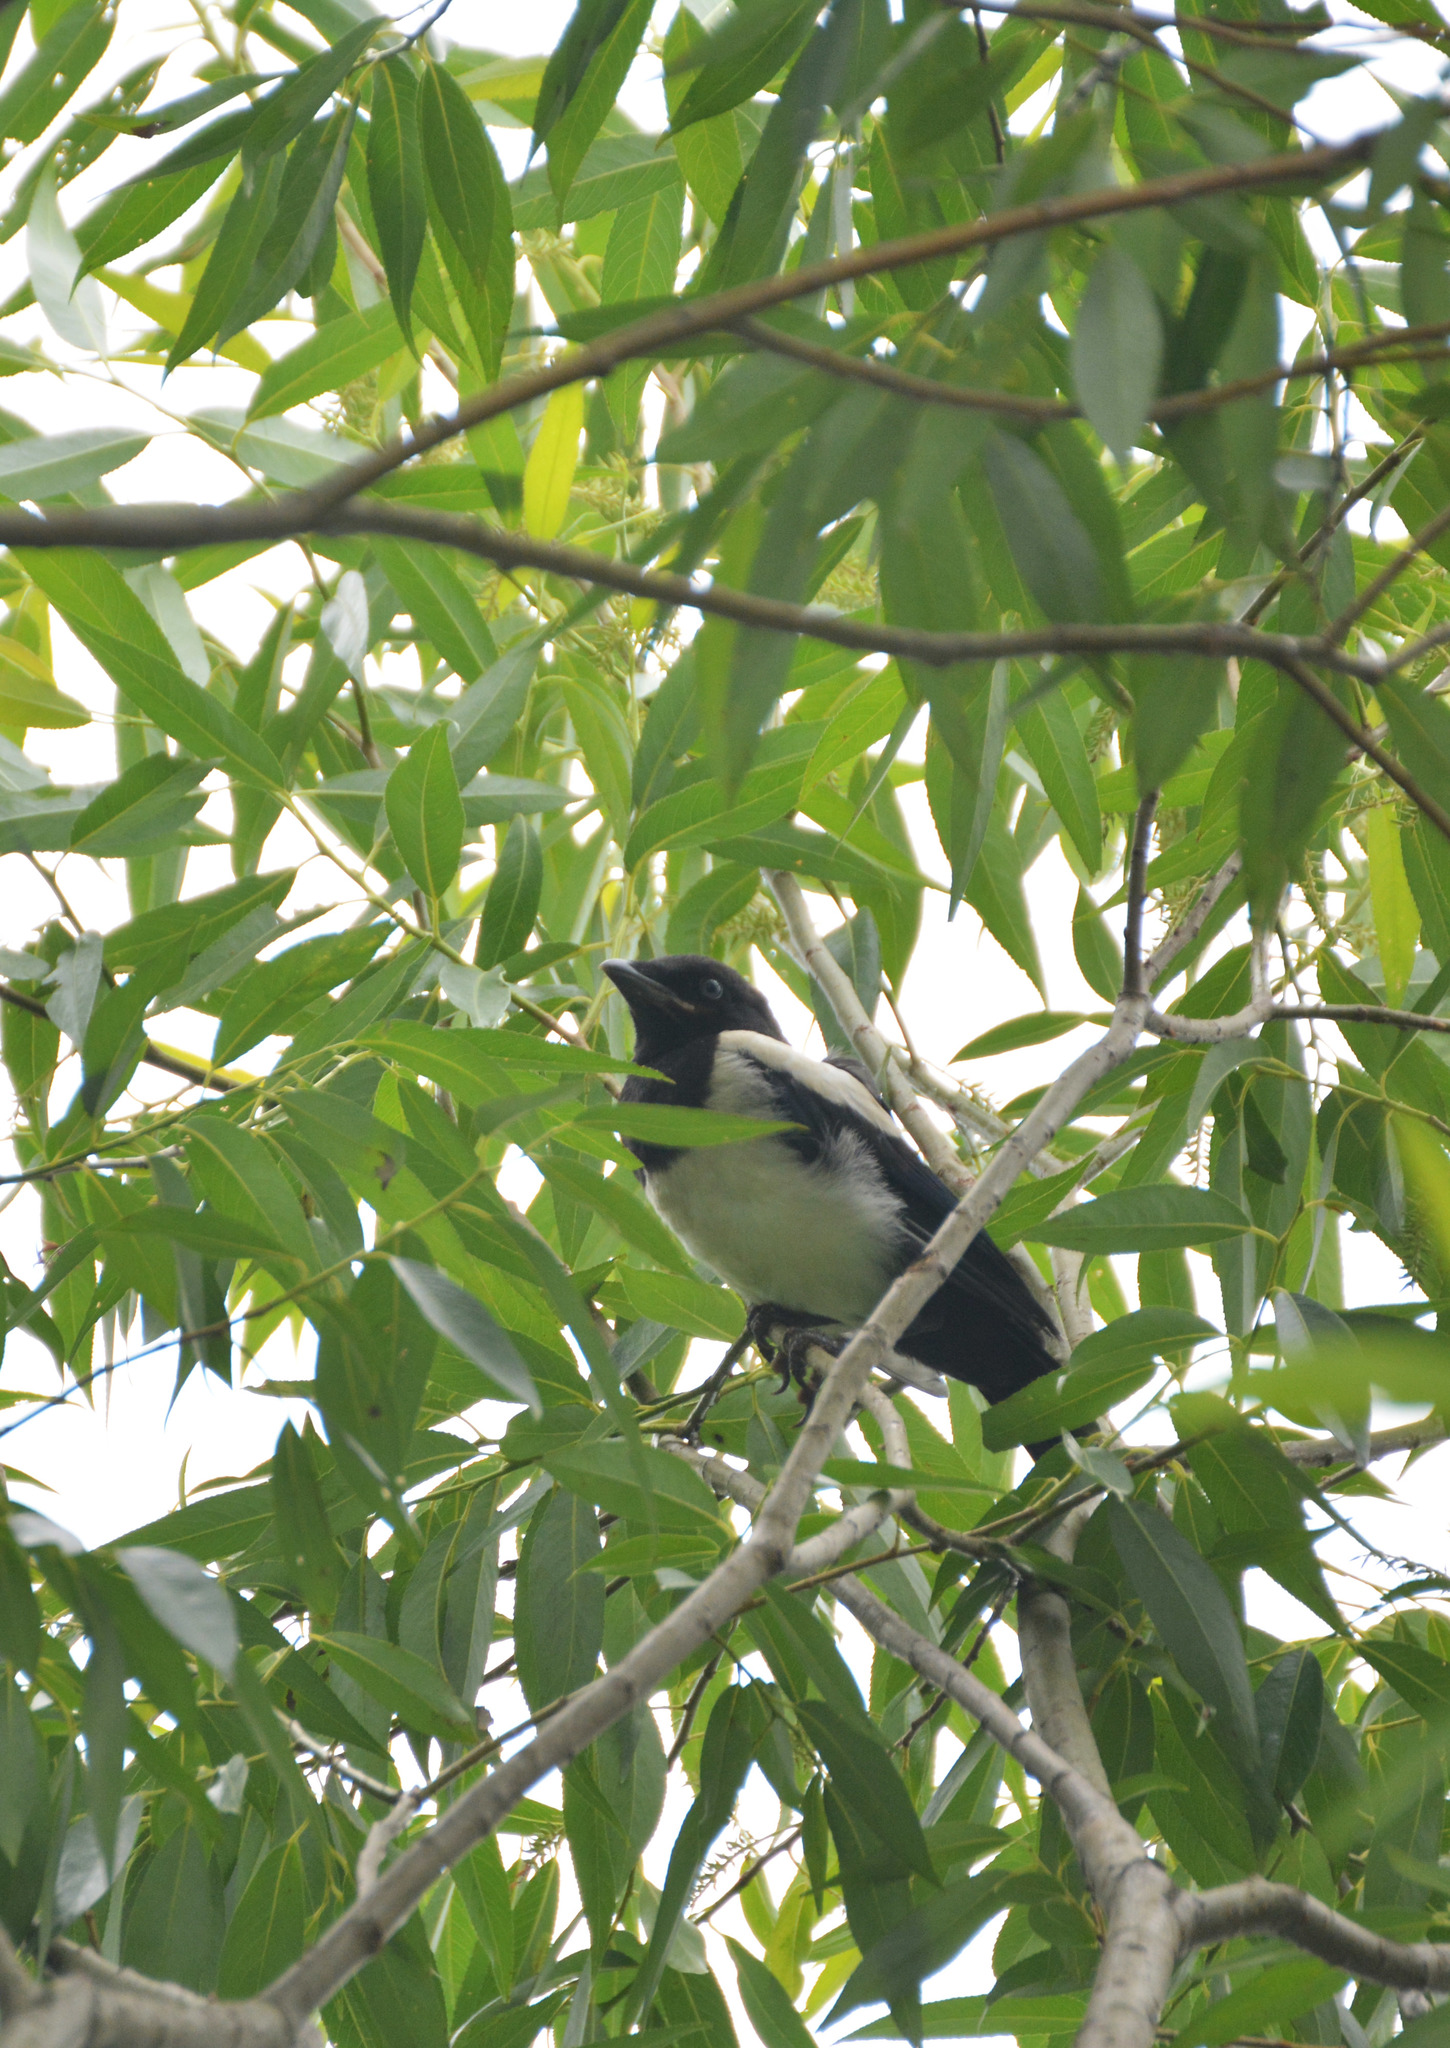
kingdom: Animalia
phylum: Chordata
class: Aves
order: Passeriformes
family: Corvidae
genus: Pica
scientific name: Pica pica
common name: Eurasian magpie
